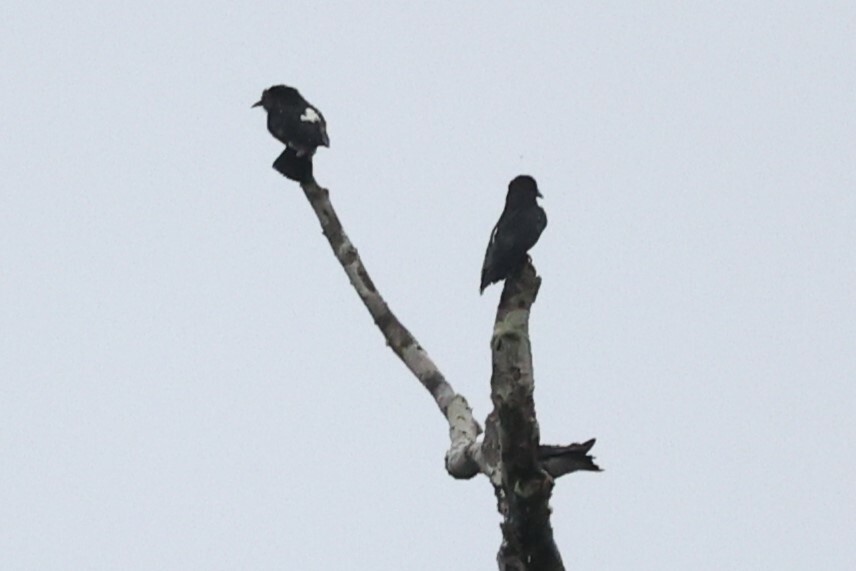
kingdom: Animalia
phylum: Chordata
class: Aves
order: Piciformes
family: Bucconidae
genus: Chelidoptera
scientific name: Chelidoptera tenebrosa
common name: Swallow-winged puffbird
